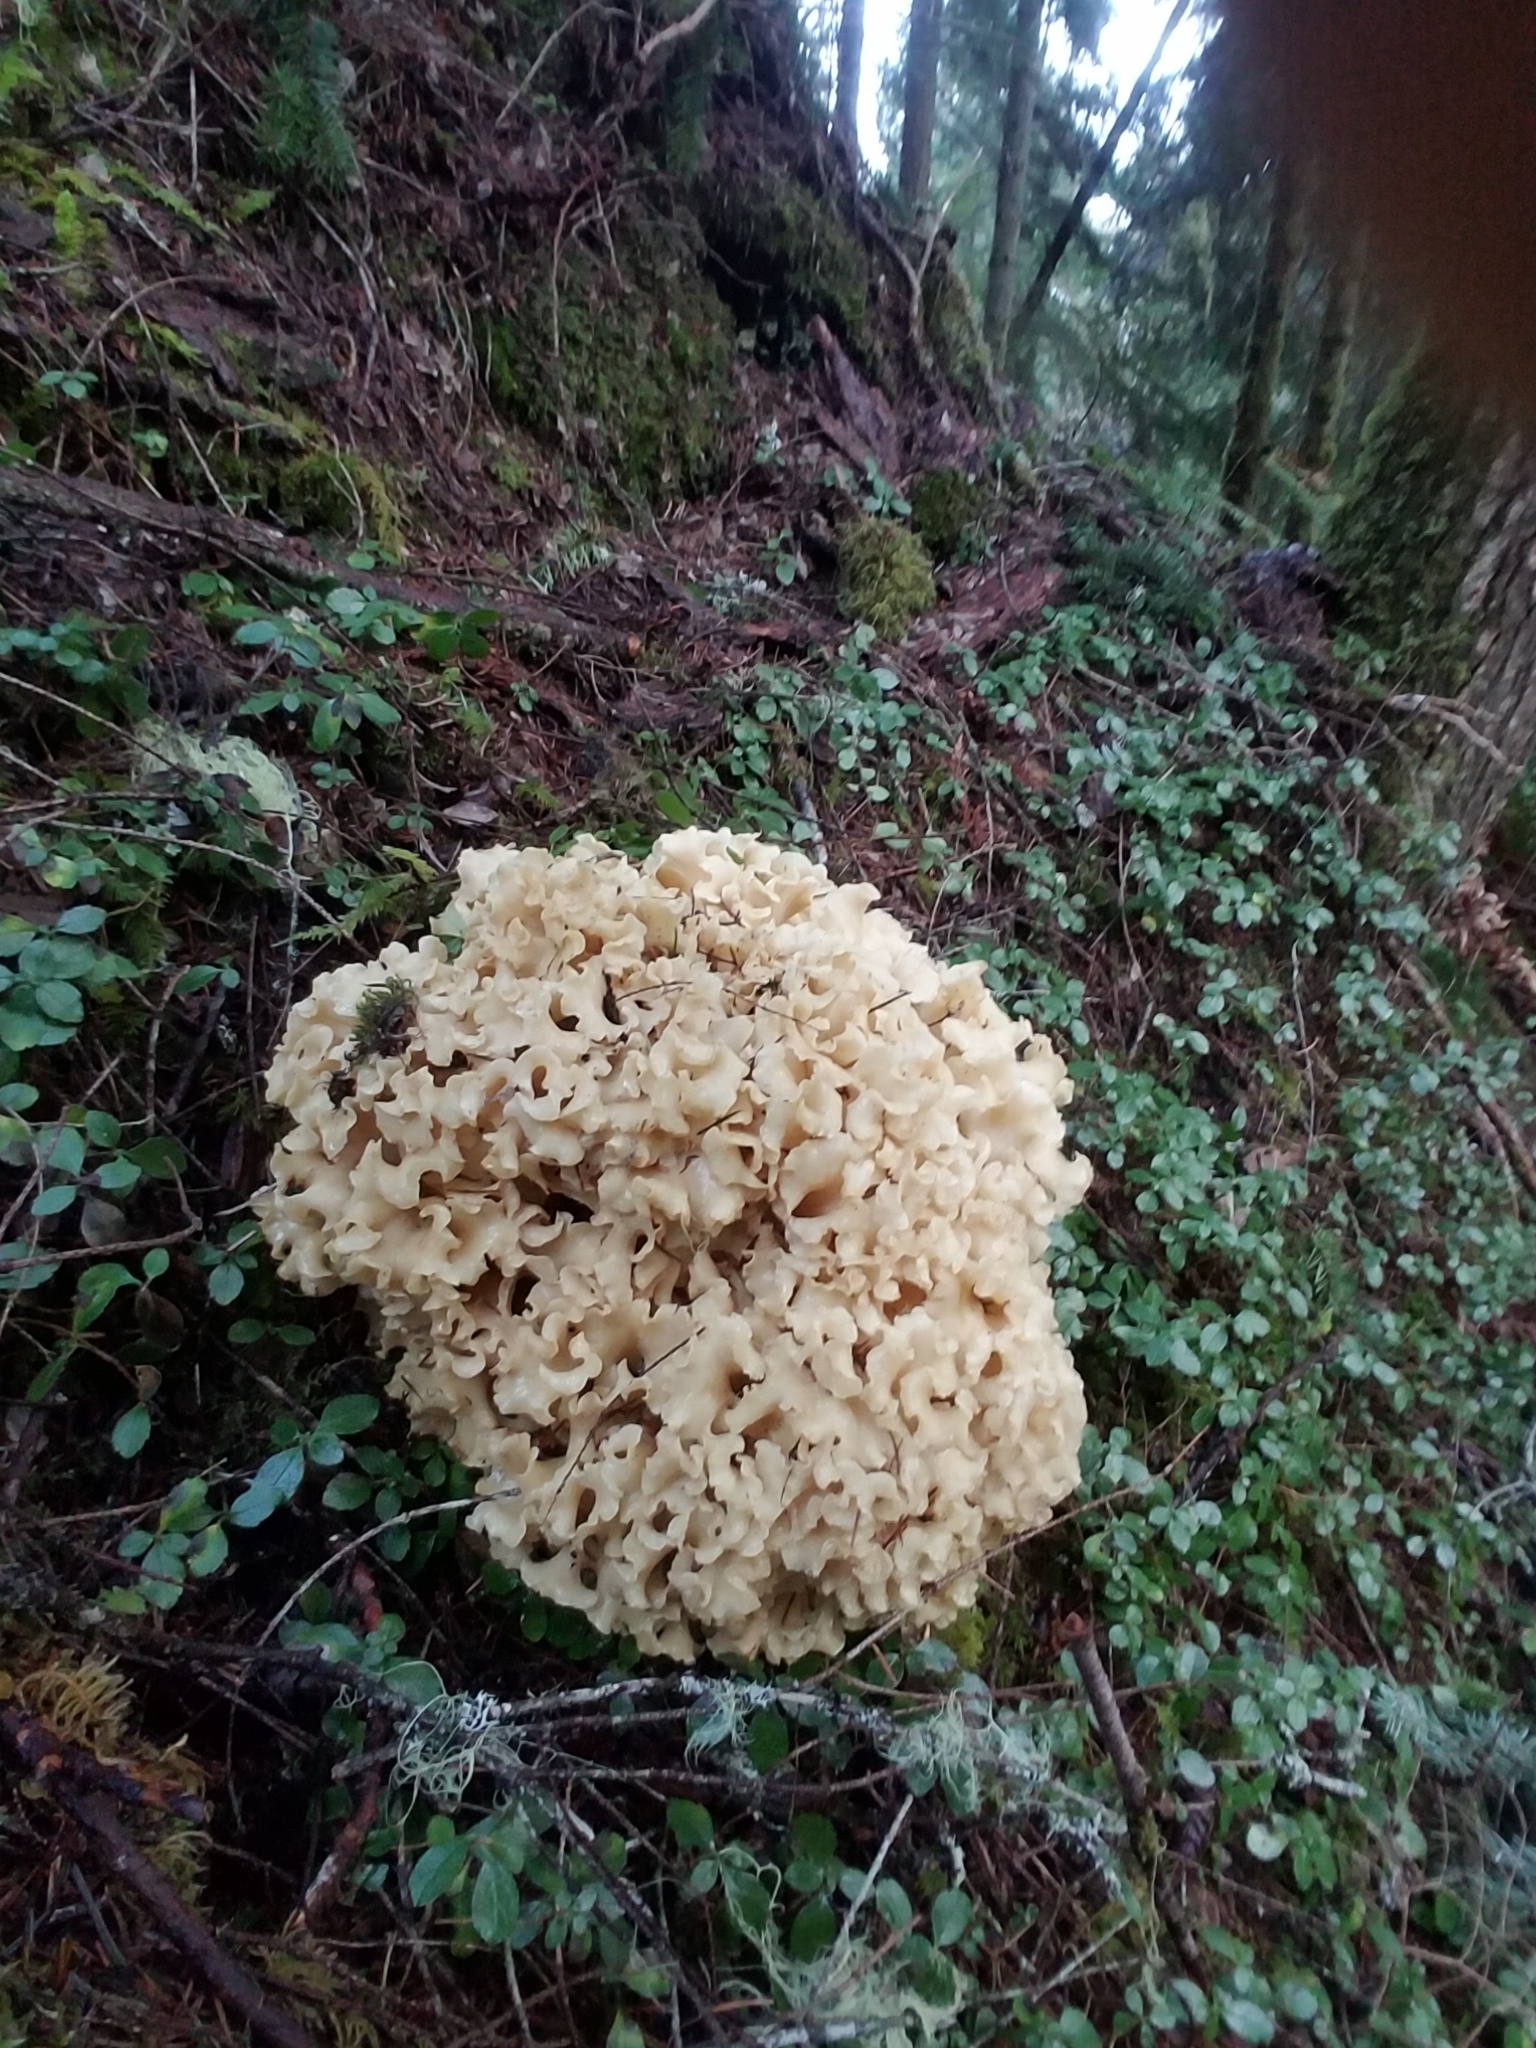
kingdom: Fungi
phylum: Basidiomycota
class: Agaricomycetes
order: Polyporales
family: Sparassidaceae
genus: Sparassis
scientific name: Sparassis radicata
